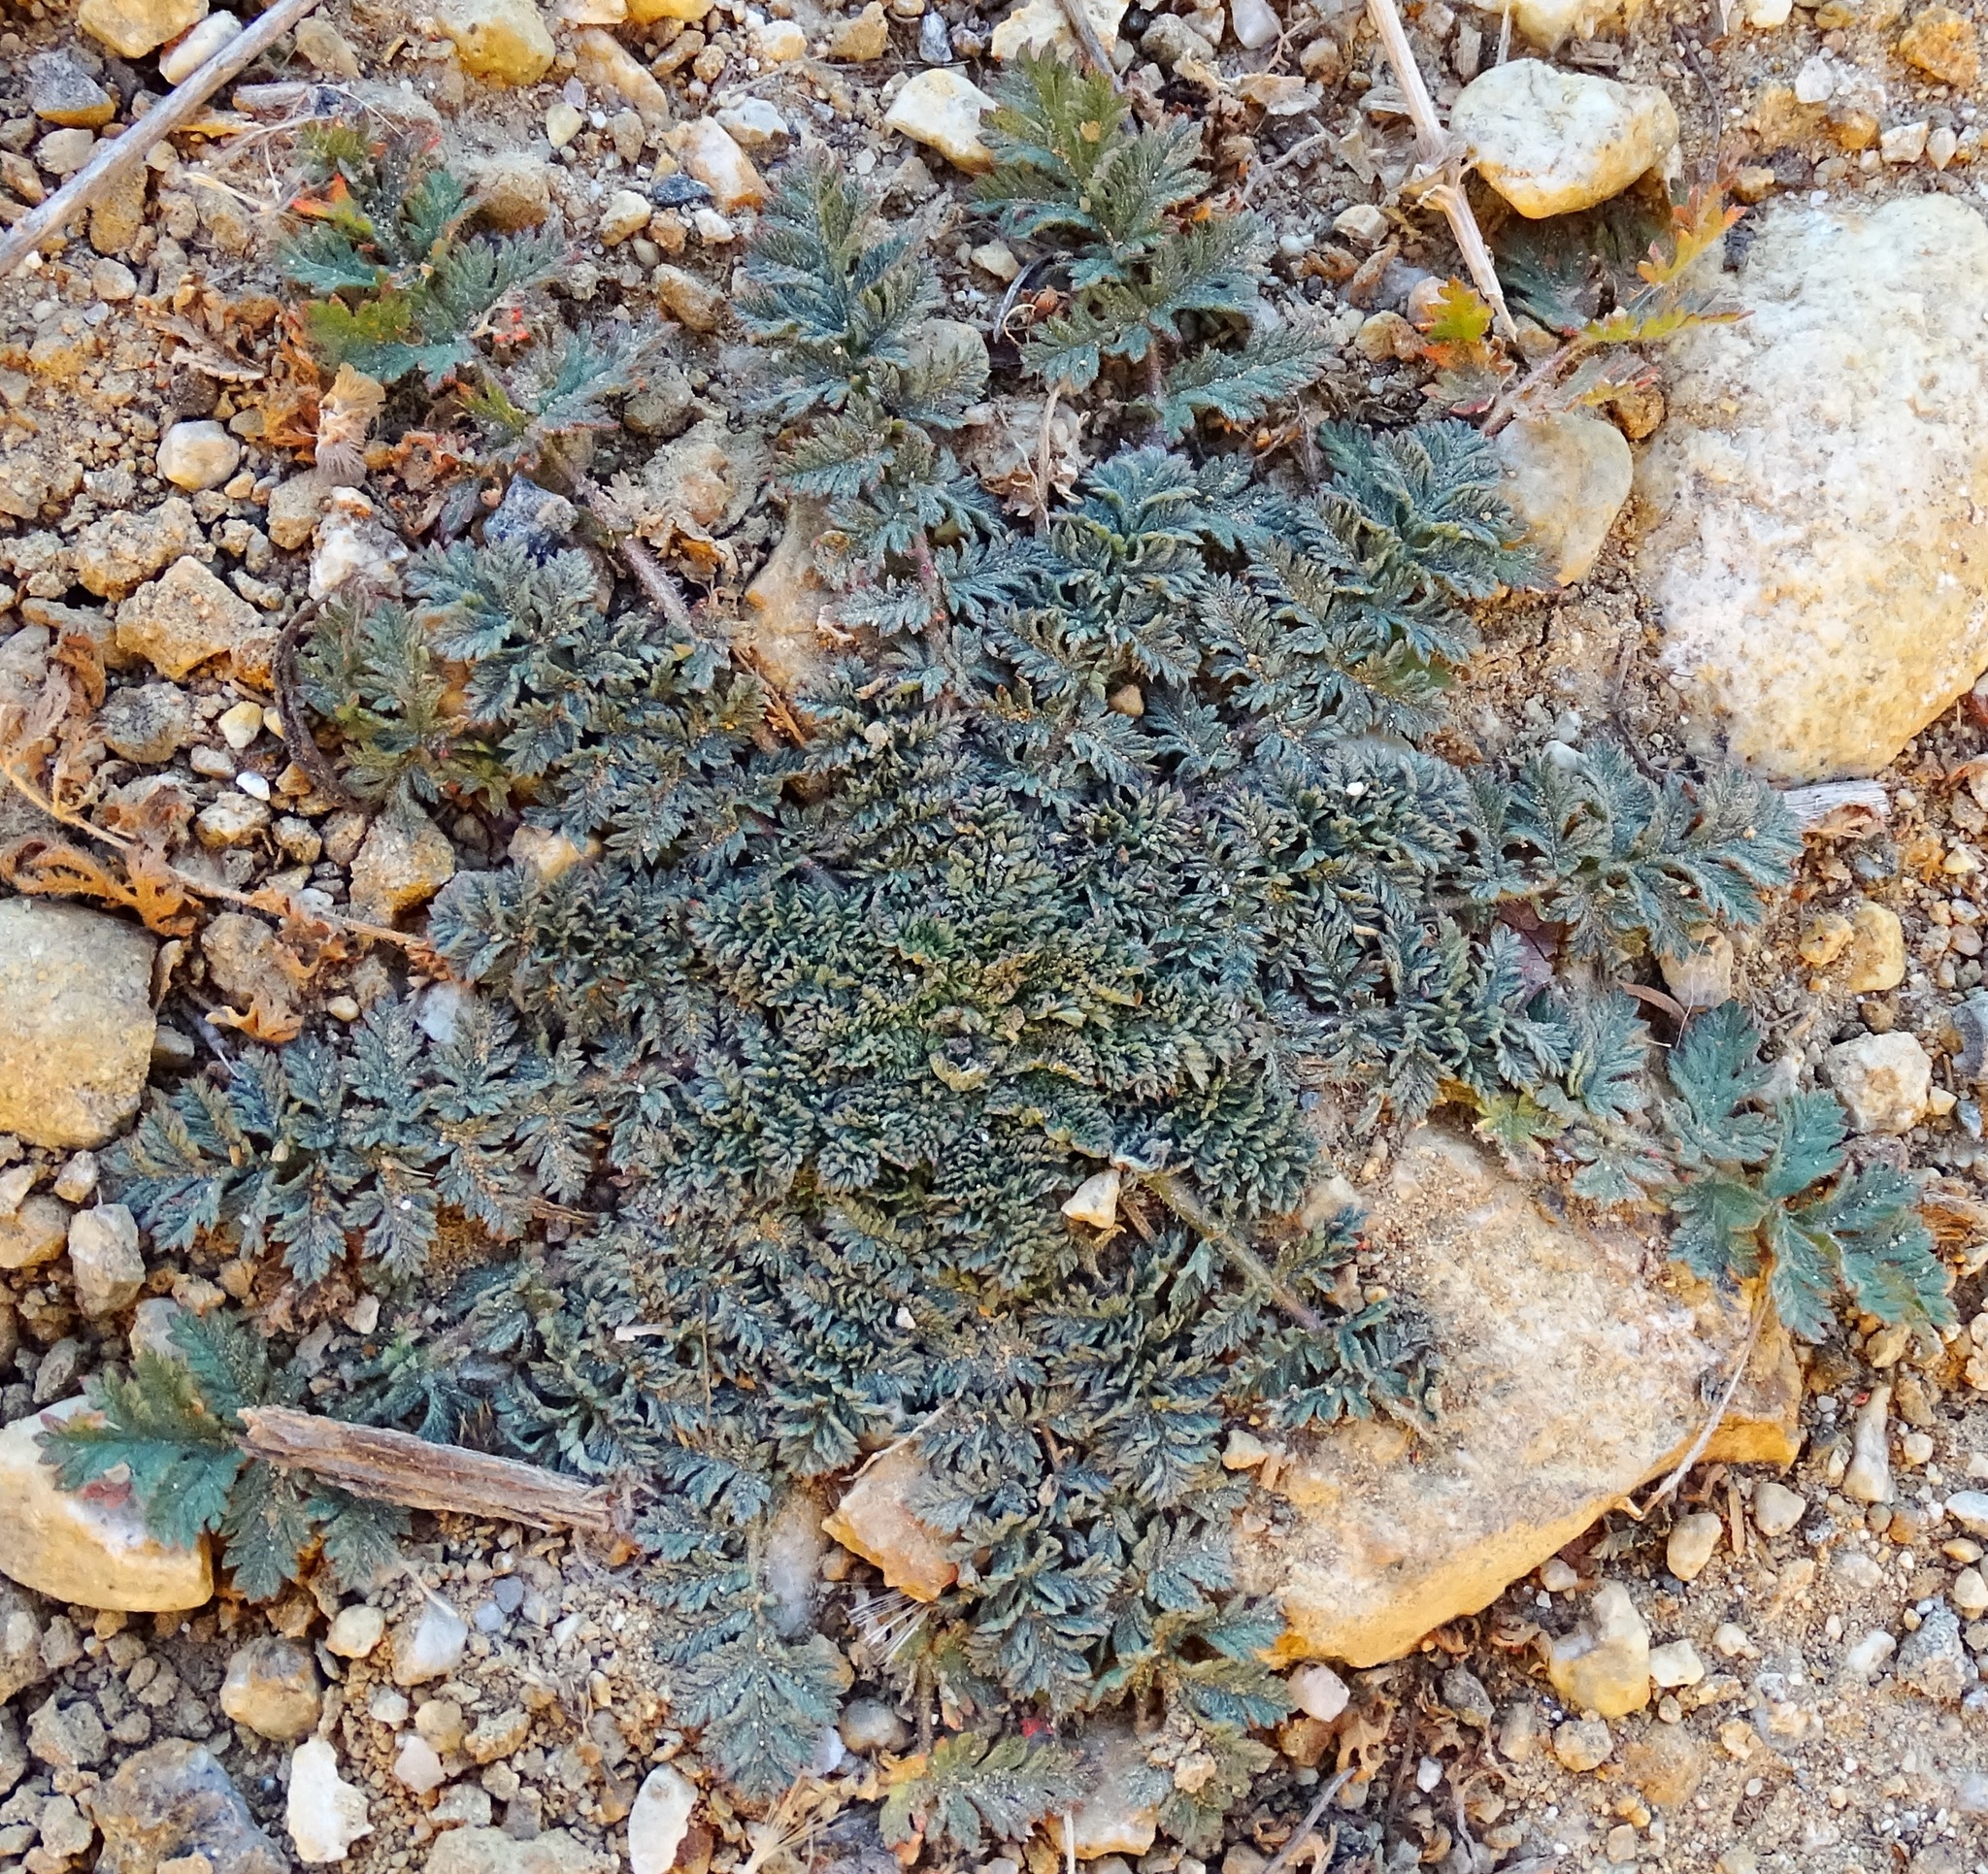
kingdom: Plantae
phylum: Tracheophyta
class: Magnoliopsida
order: Geraniales
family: Geraniaceae
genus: Erodium
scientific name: Erodium cicutarium
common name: Common stork's-bill
